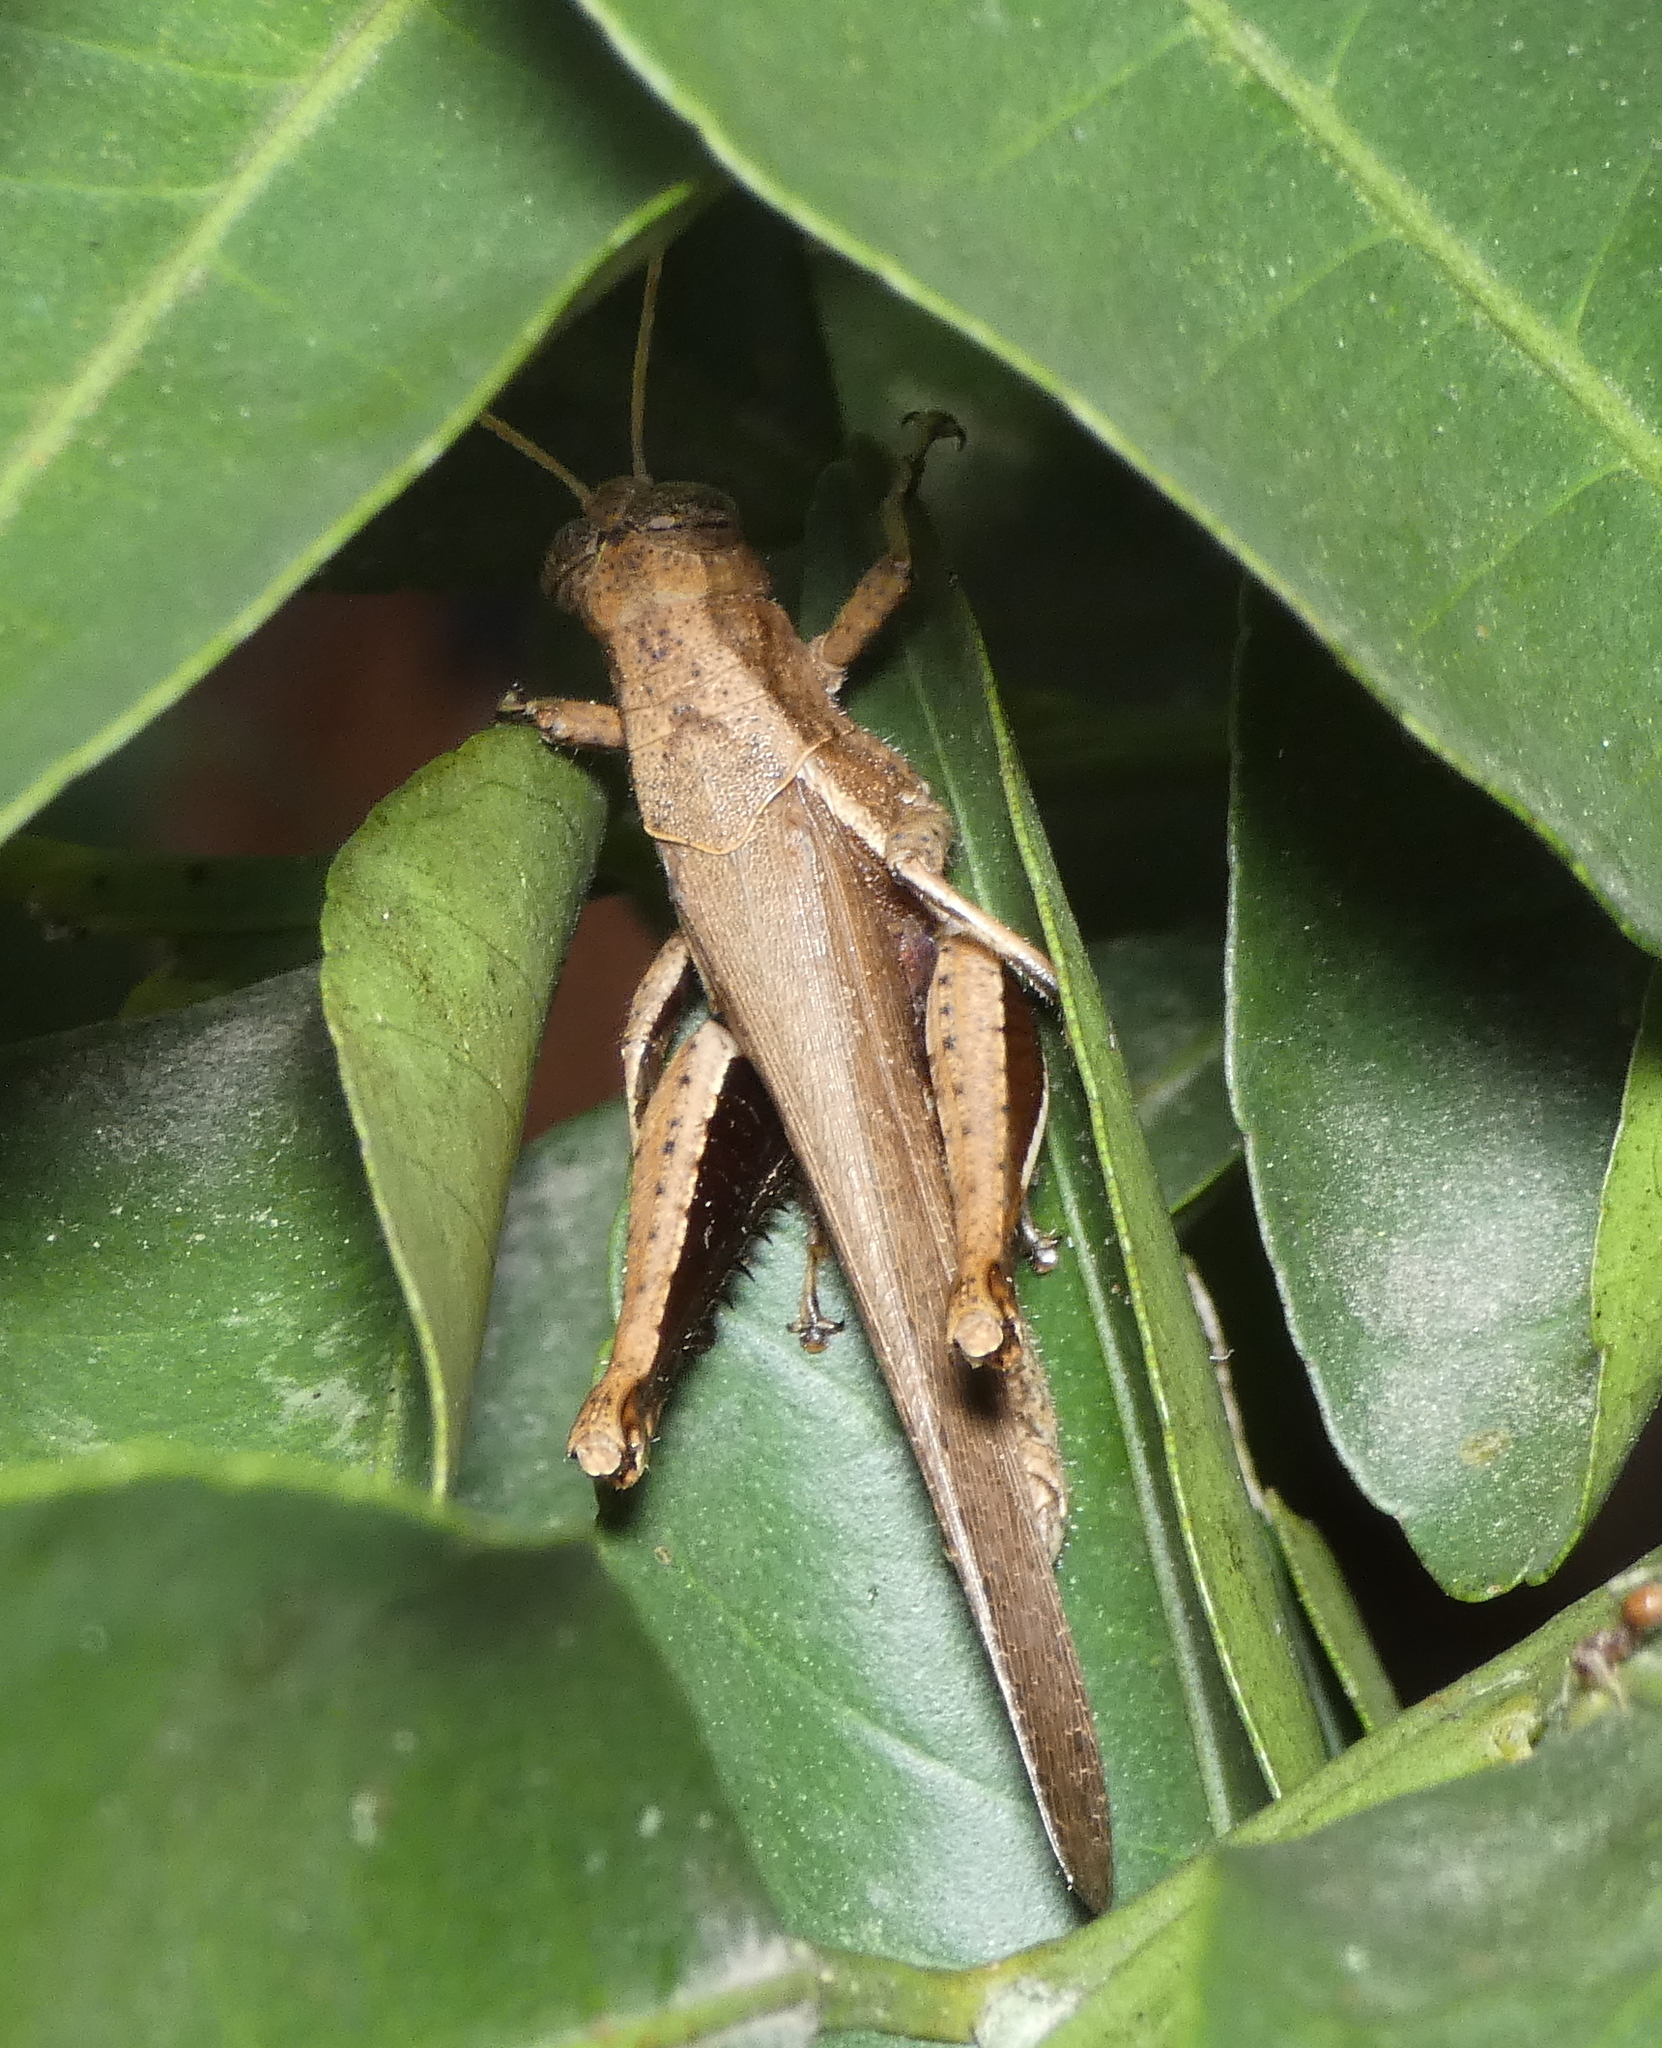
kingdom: Animalia
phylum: Arthropoda
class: Insecta
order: Orthoptera
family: Acrididae
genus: Abracris
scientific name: Abracris flavolineata
